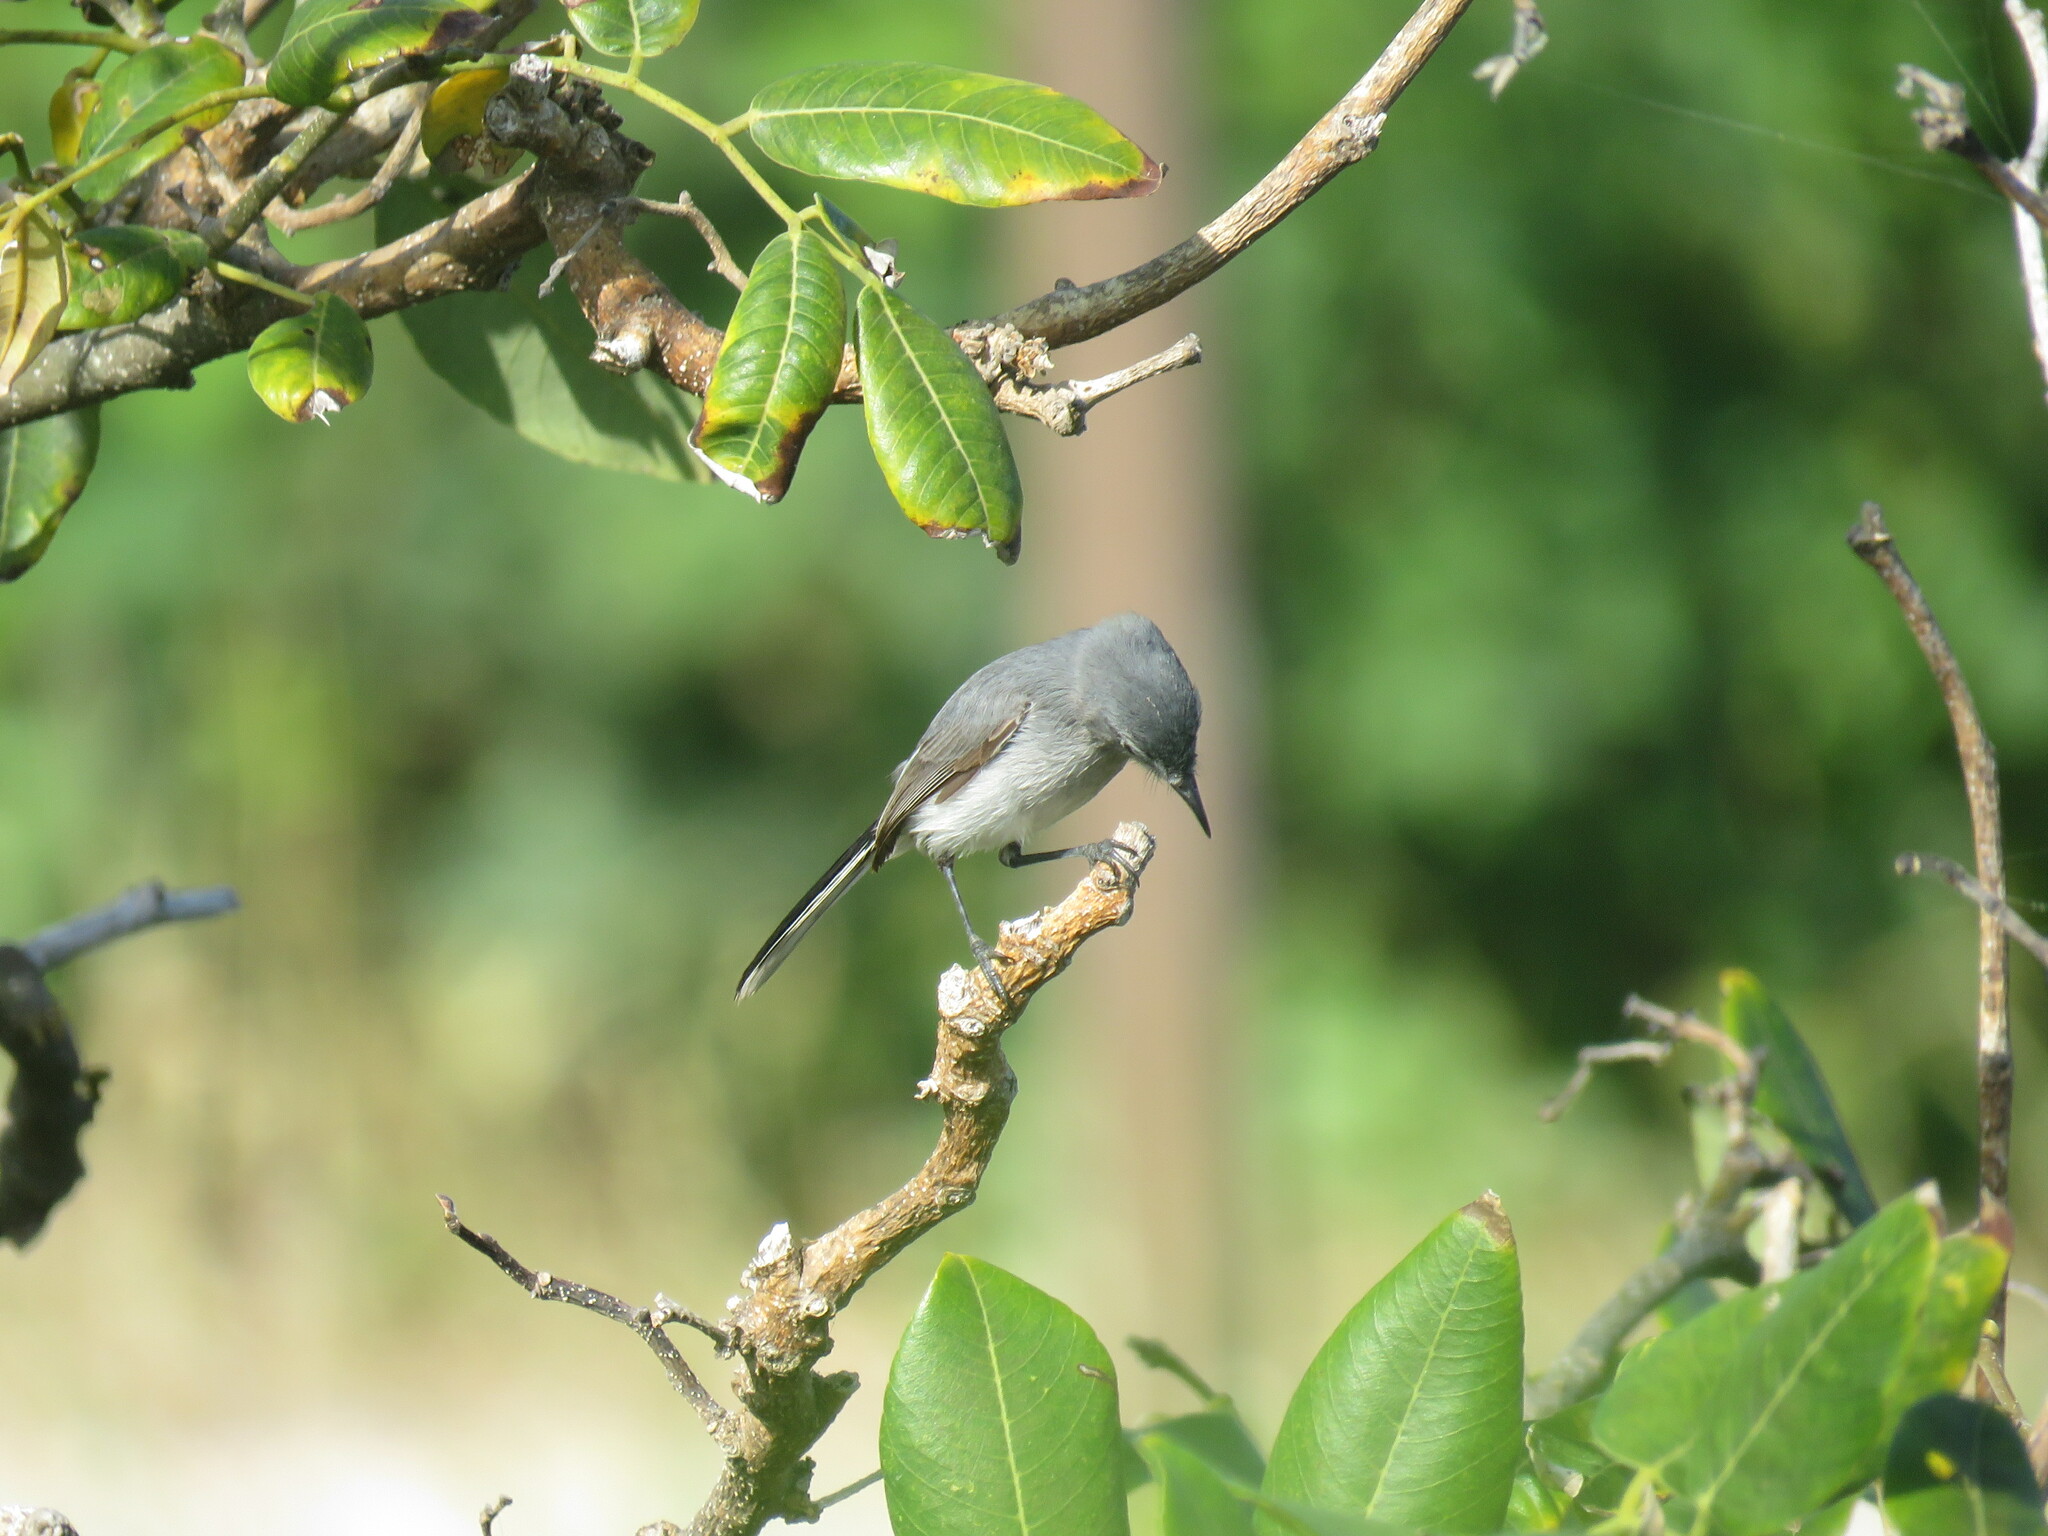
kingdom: Animalia
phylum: Chordata
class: Aves
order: Passeriformes
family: Polioptilidae
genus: Polioptila
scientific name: Polioptila caerulea
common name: Blue-gray gnatcatcher
